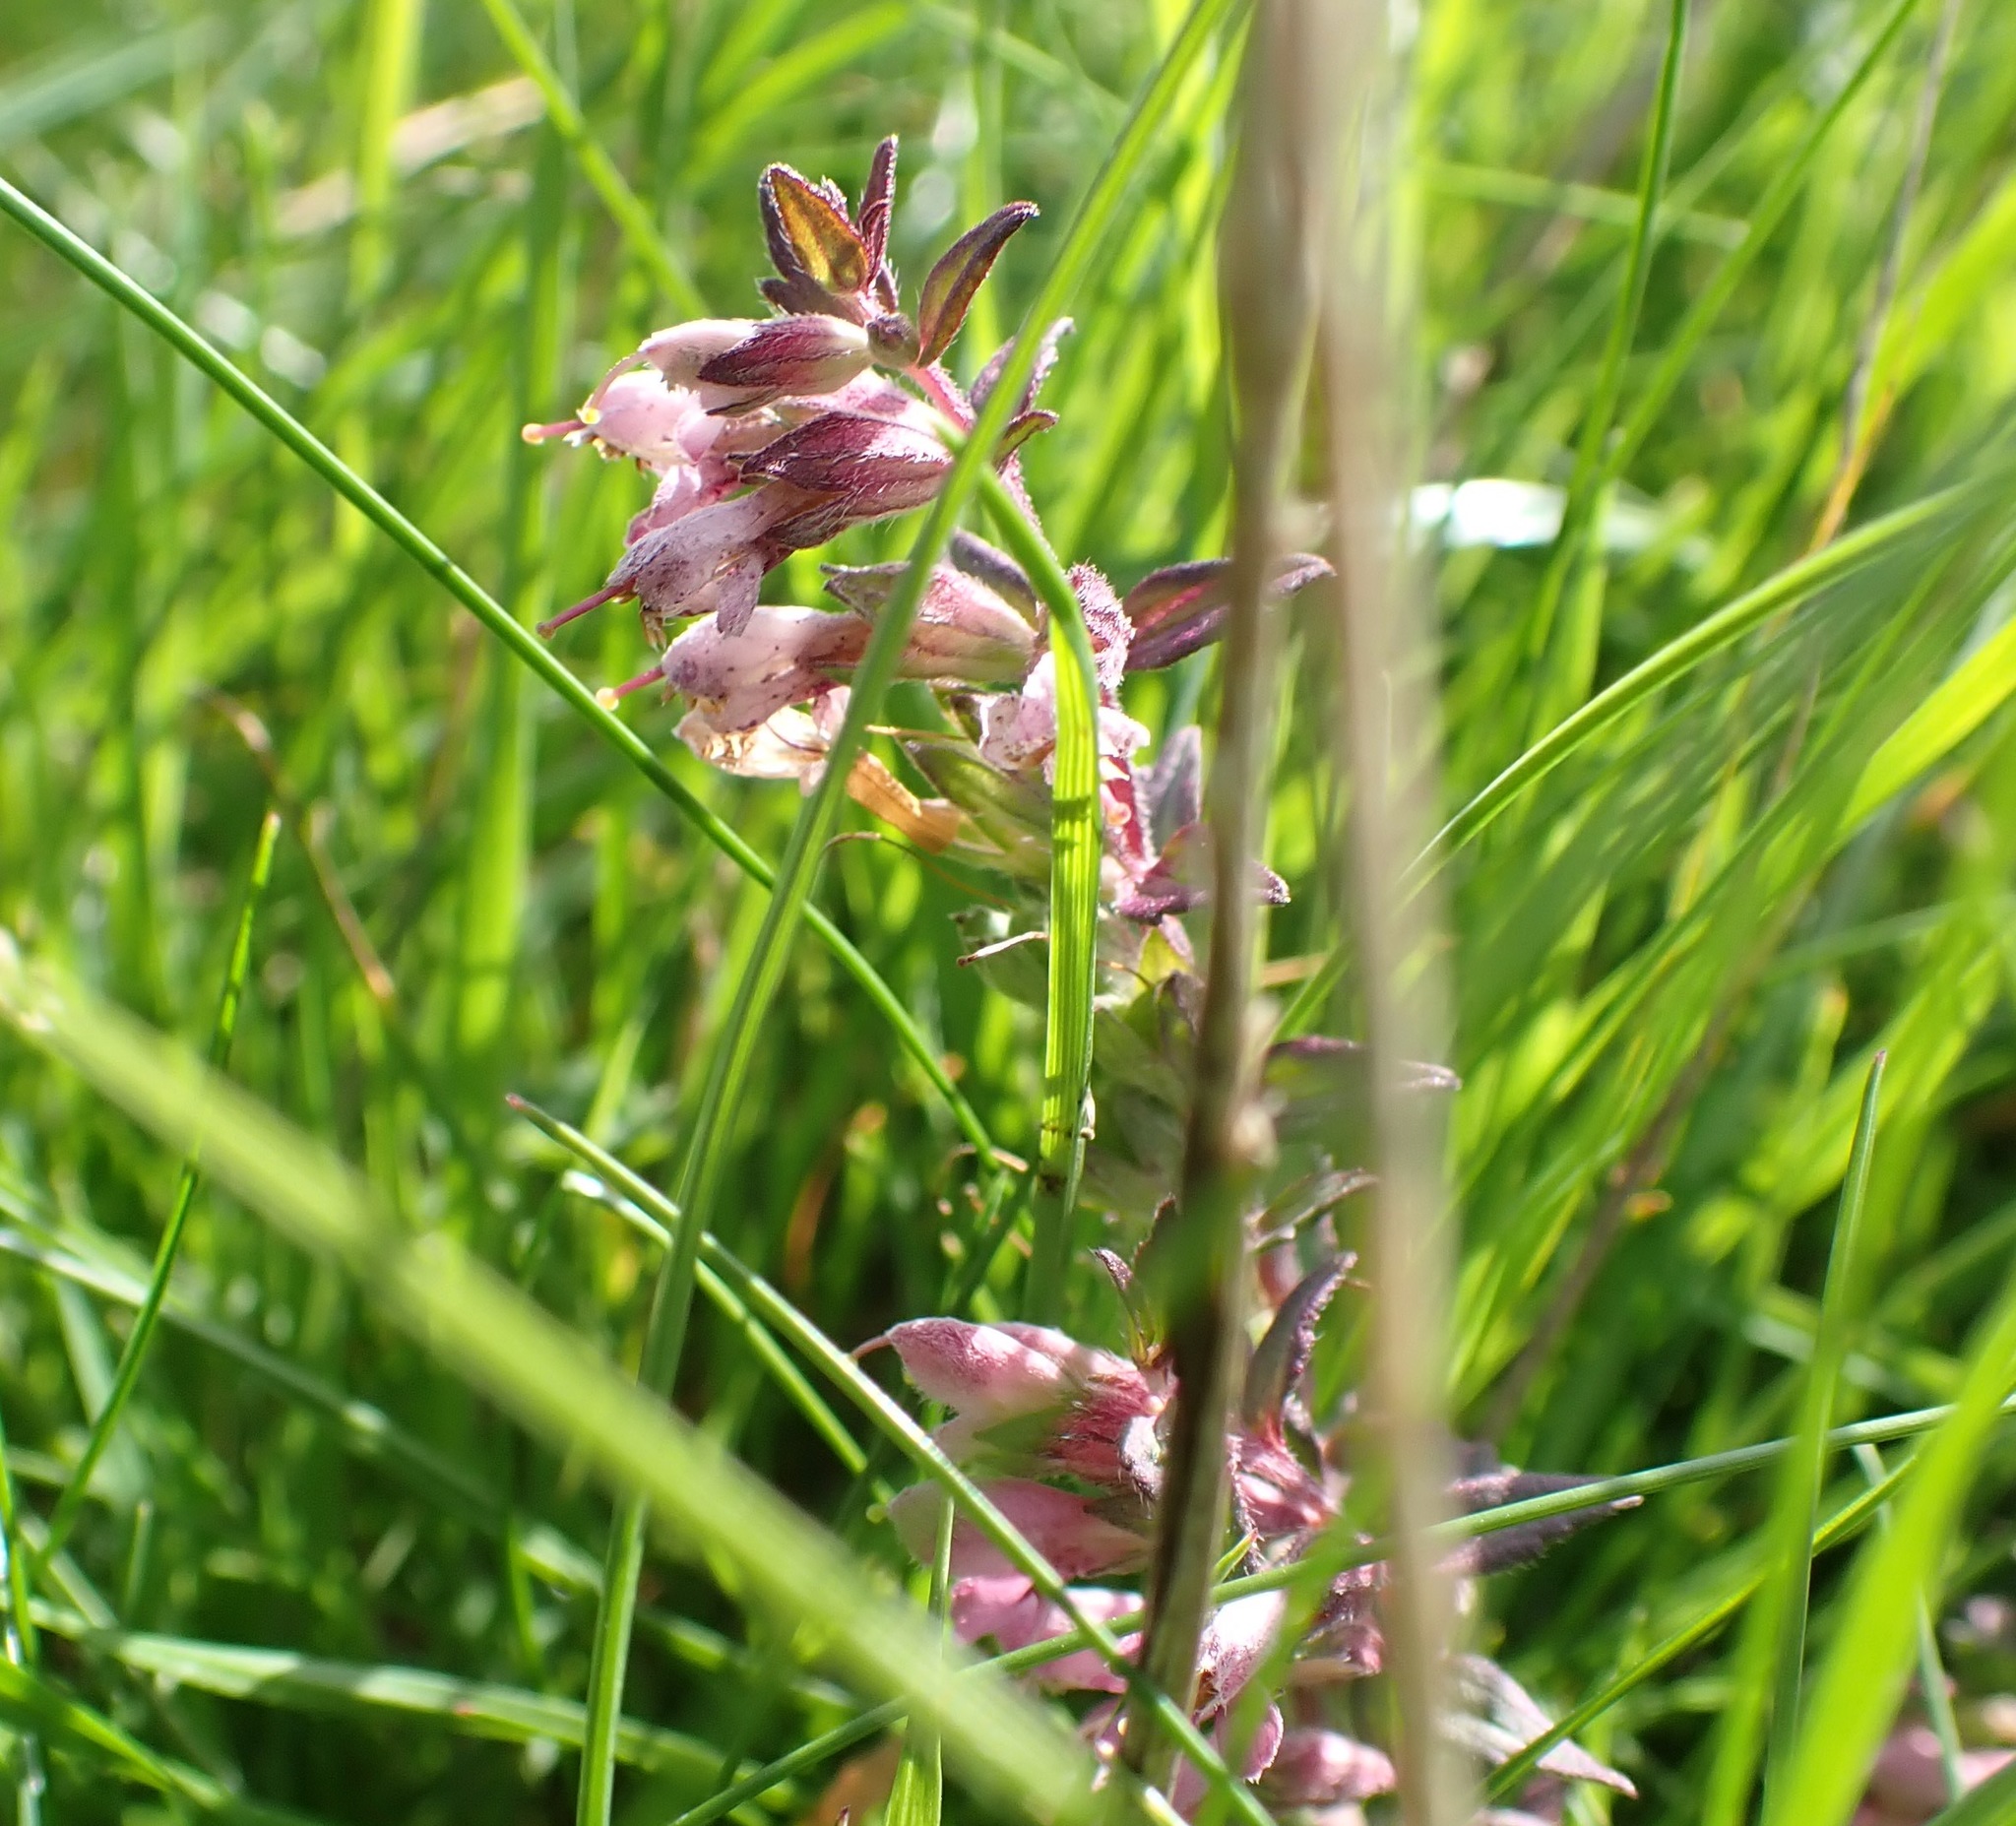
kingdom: Plantae
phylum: Tracheophyta
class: Magnoliopsida
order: Lamiales
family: Orobanchaceae
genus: Odontites
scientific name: Odontites vulgaris
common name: Broomrape
